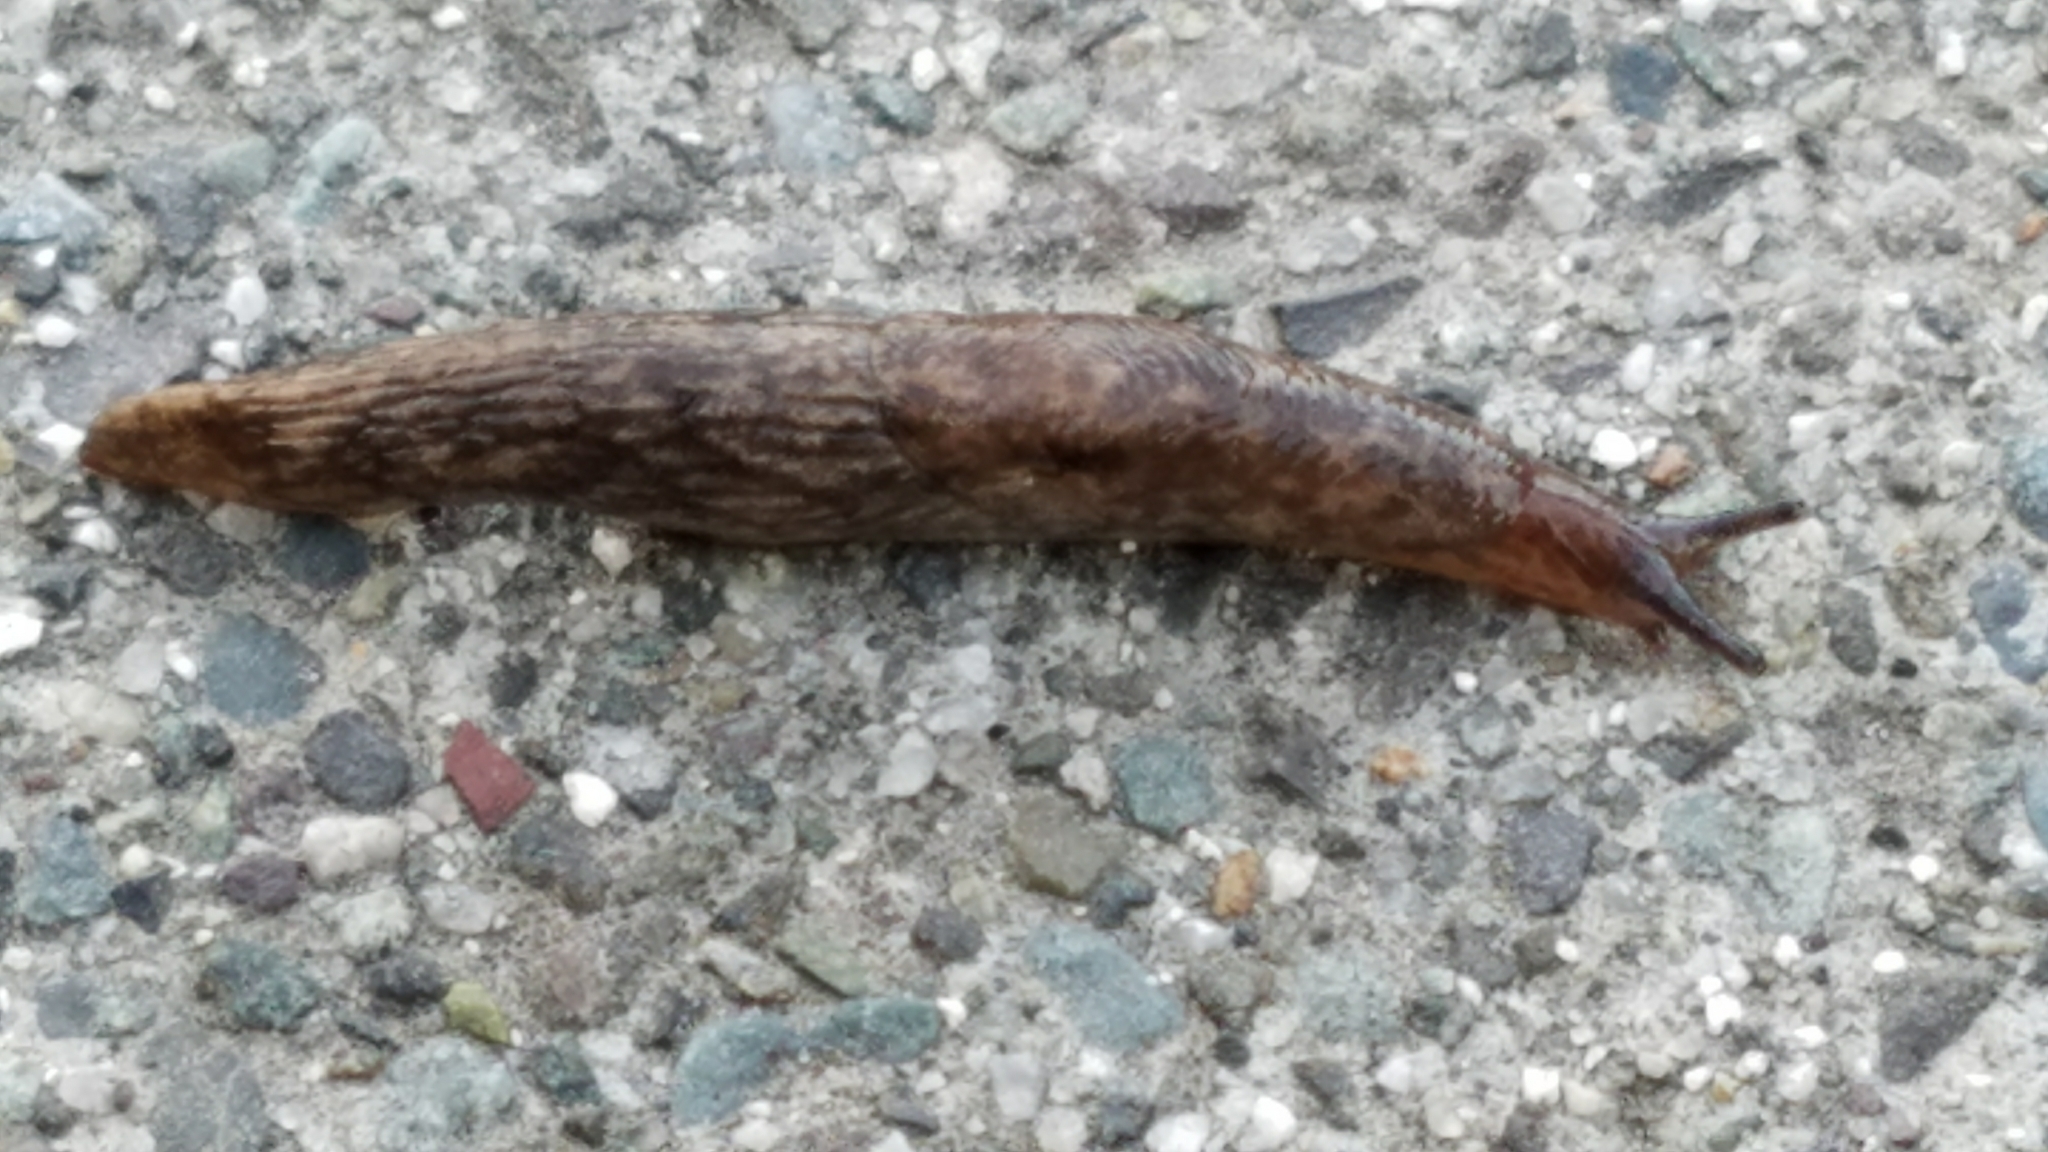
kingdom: Animalia
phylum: Mollusca
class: Gastropoda
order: Stylommatophora
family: Agriolimacidae
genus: Deroceras
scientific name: Deroceras reticulatum
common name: Gray field slug
